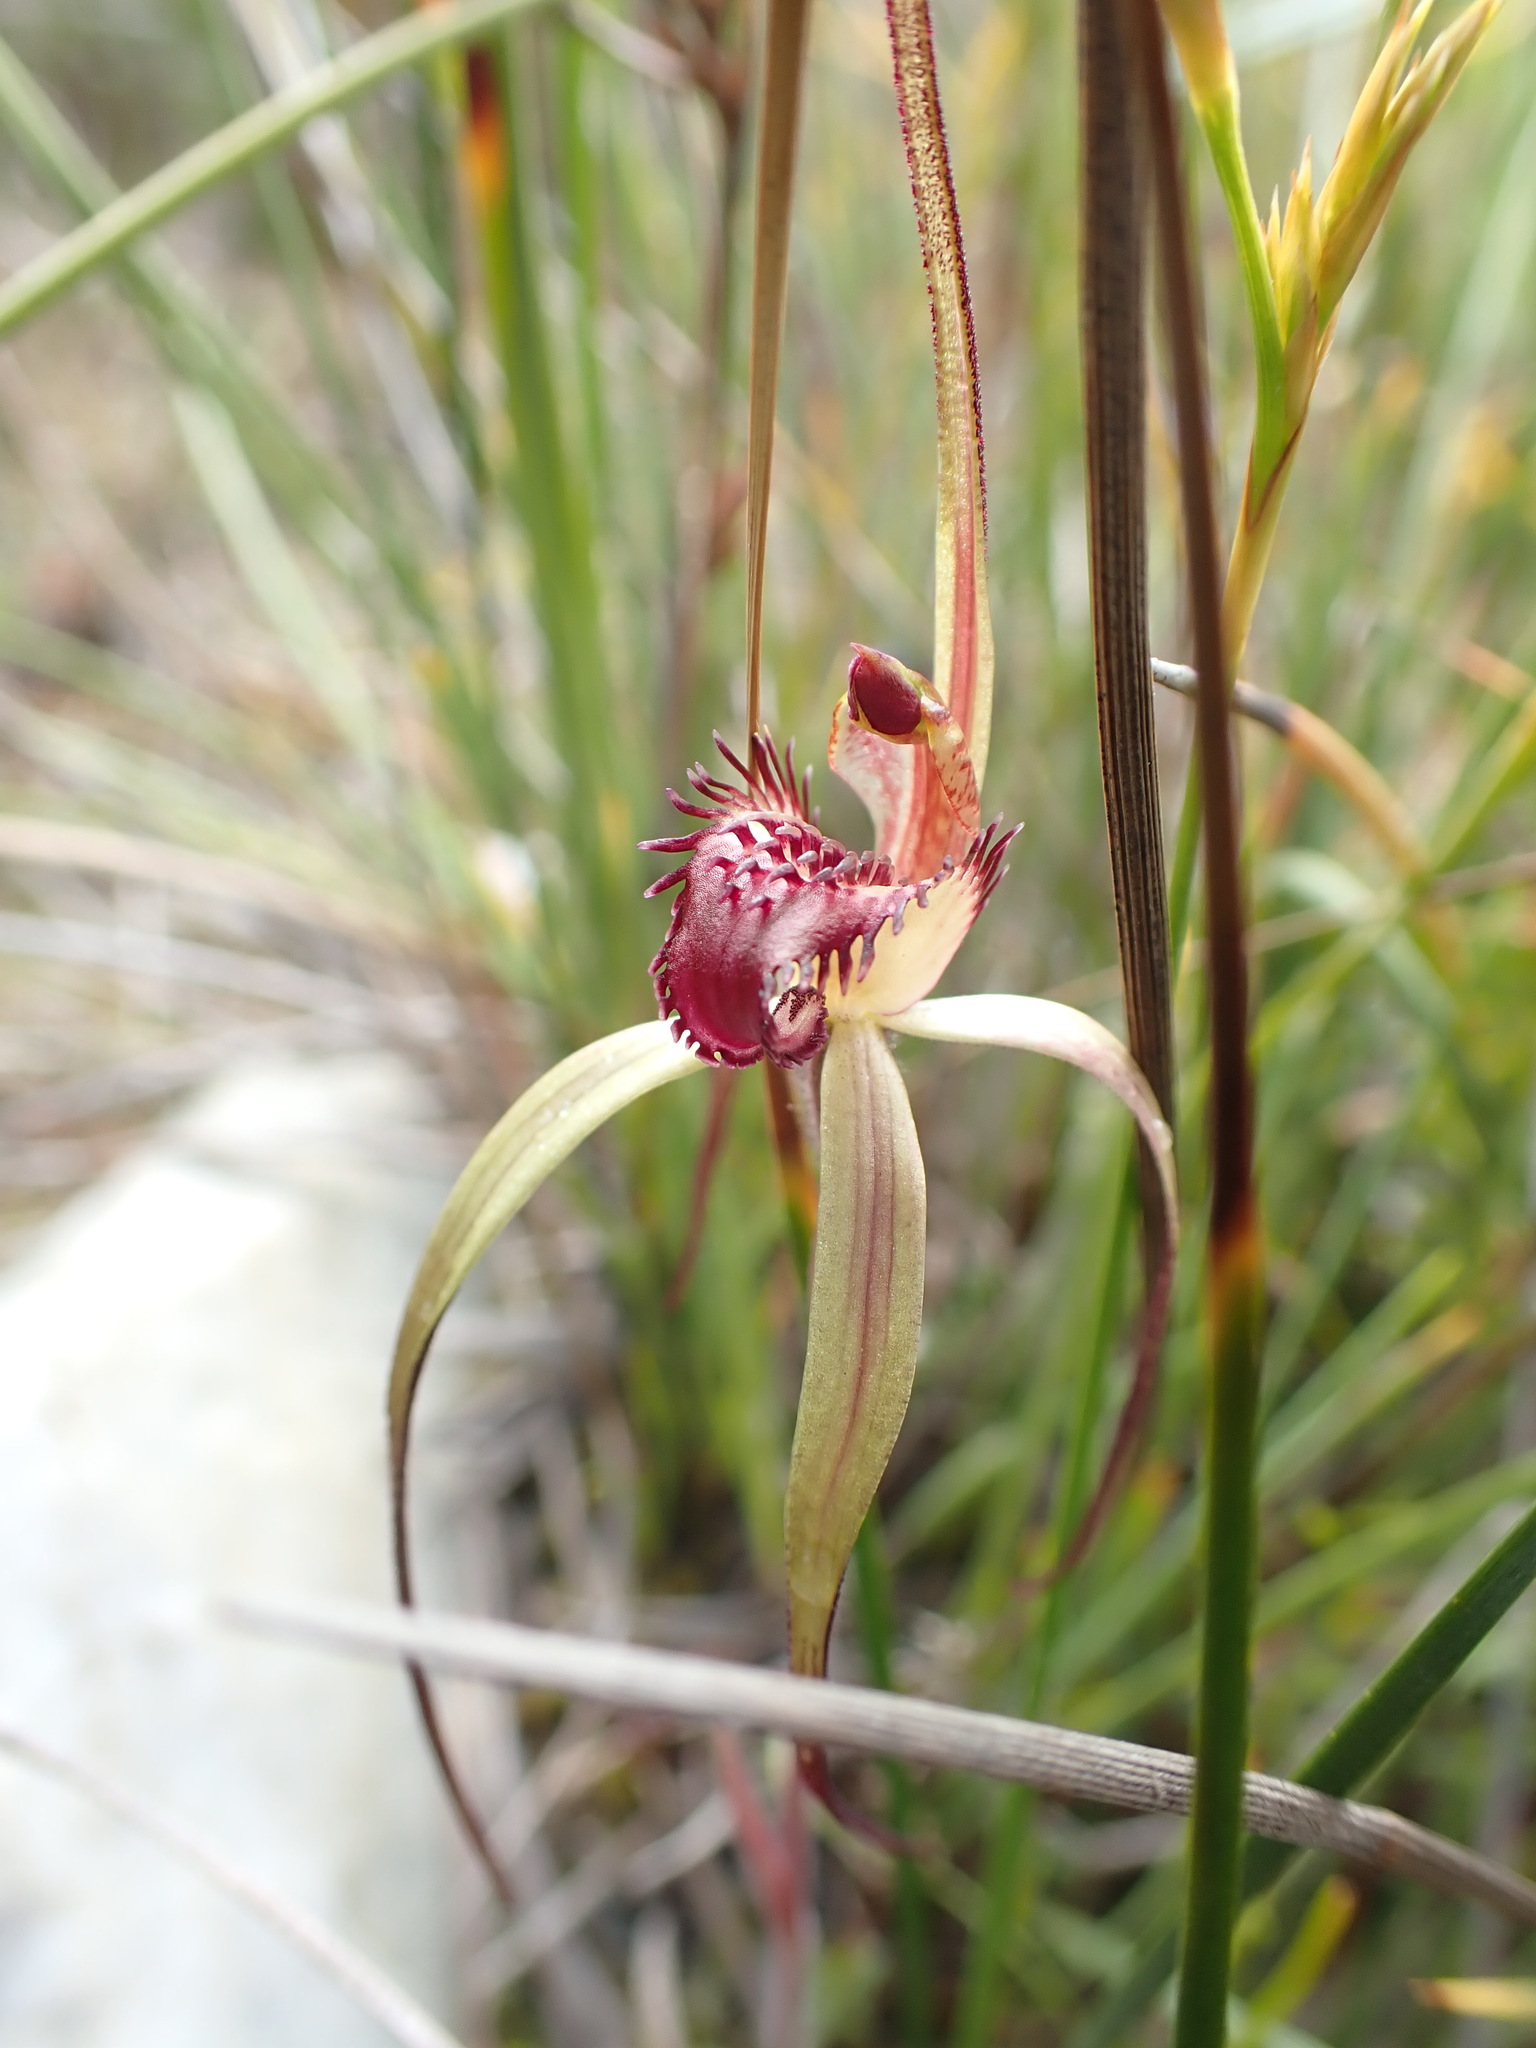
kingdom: Plantae
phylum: Tracheophyta
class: Liliopsida
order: Asparagales
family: Orchidaceae
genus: Caladenia
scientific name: Caladenia dienema
